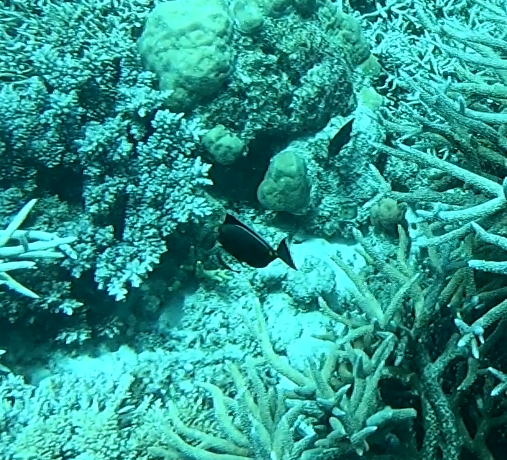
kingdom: Animalia
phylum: Chordata
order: Perciformes
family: Acanthuridae
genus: Naso
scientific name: Naso lituratus
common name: Orangespine unicornfish
